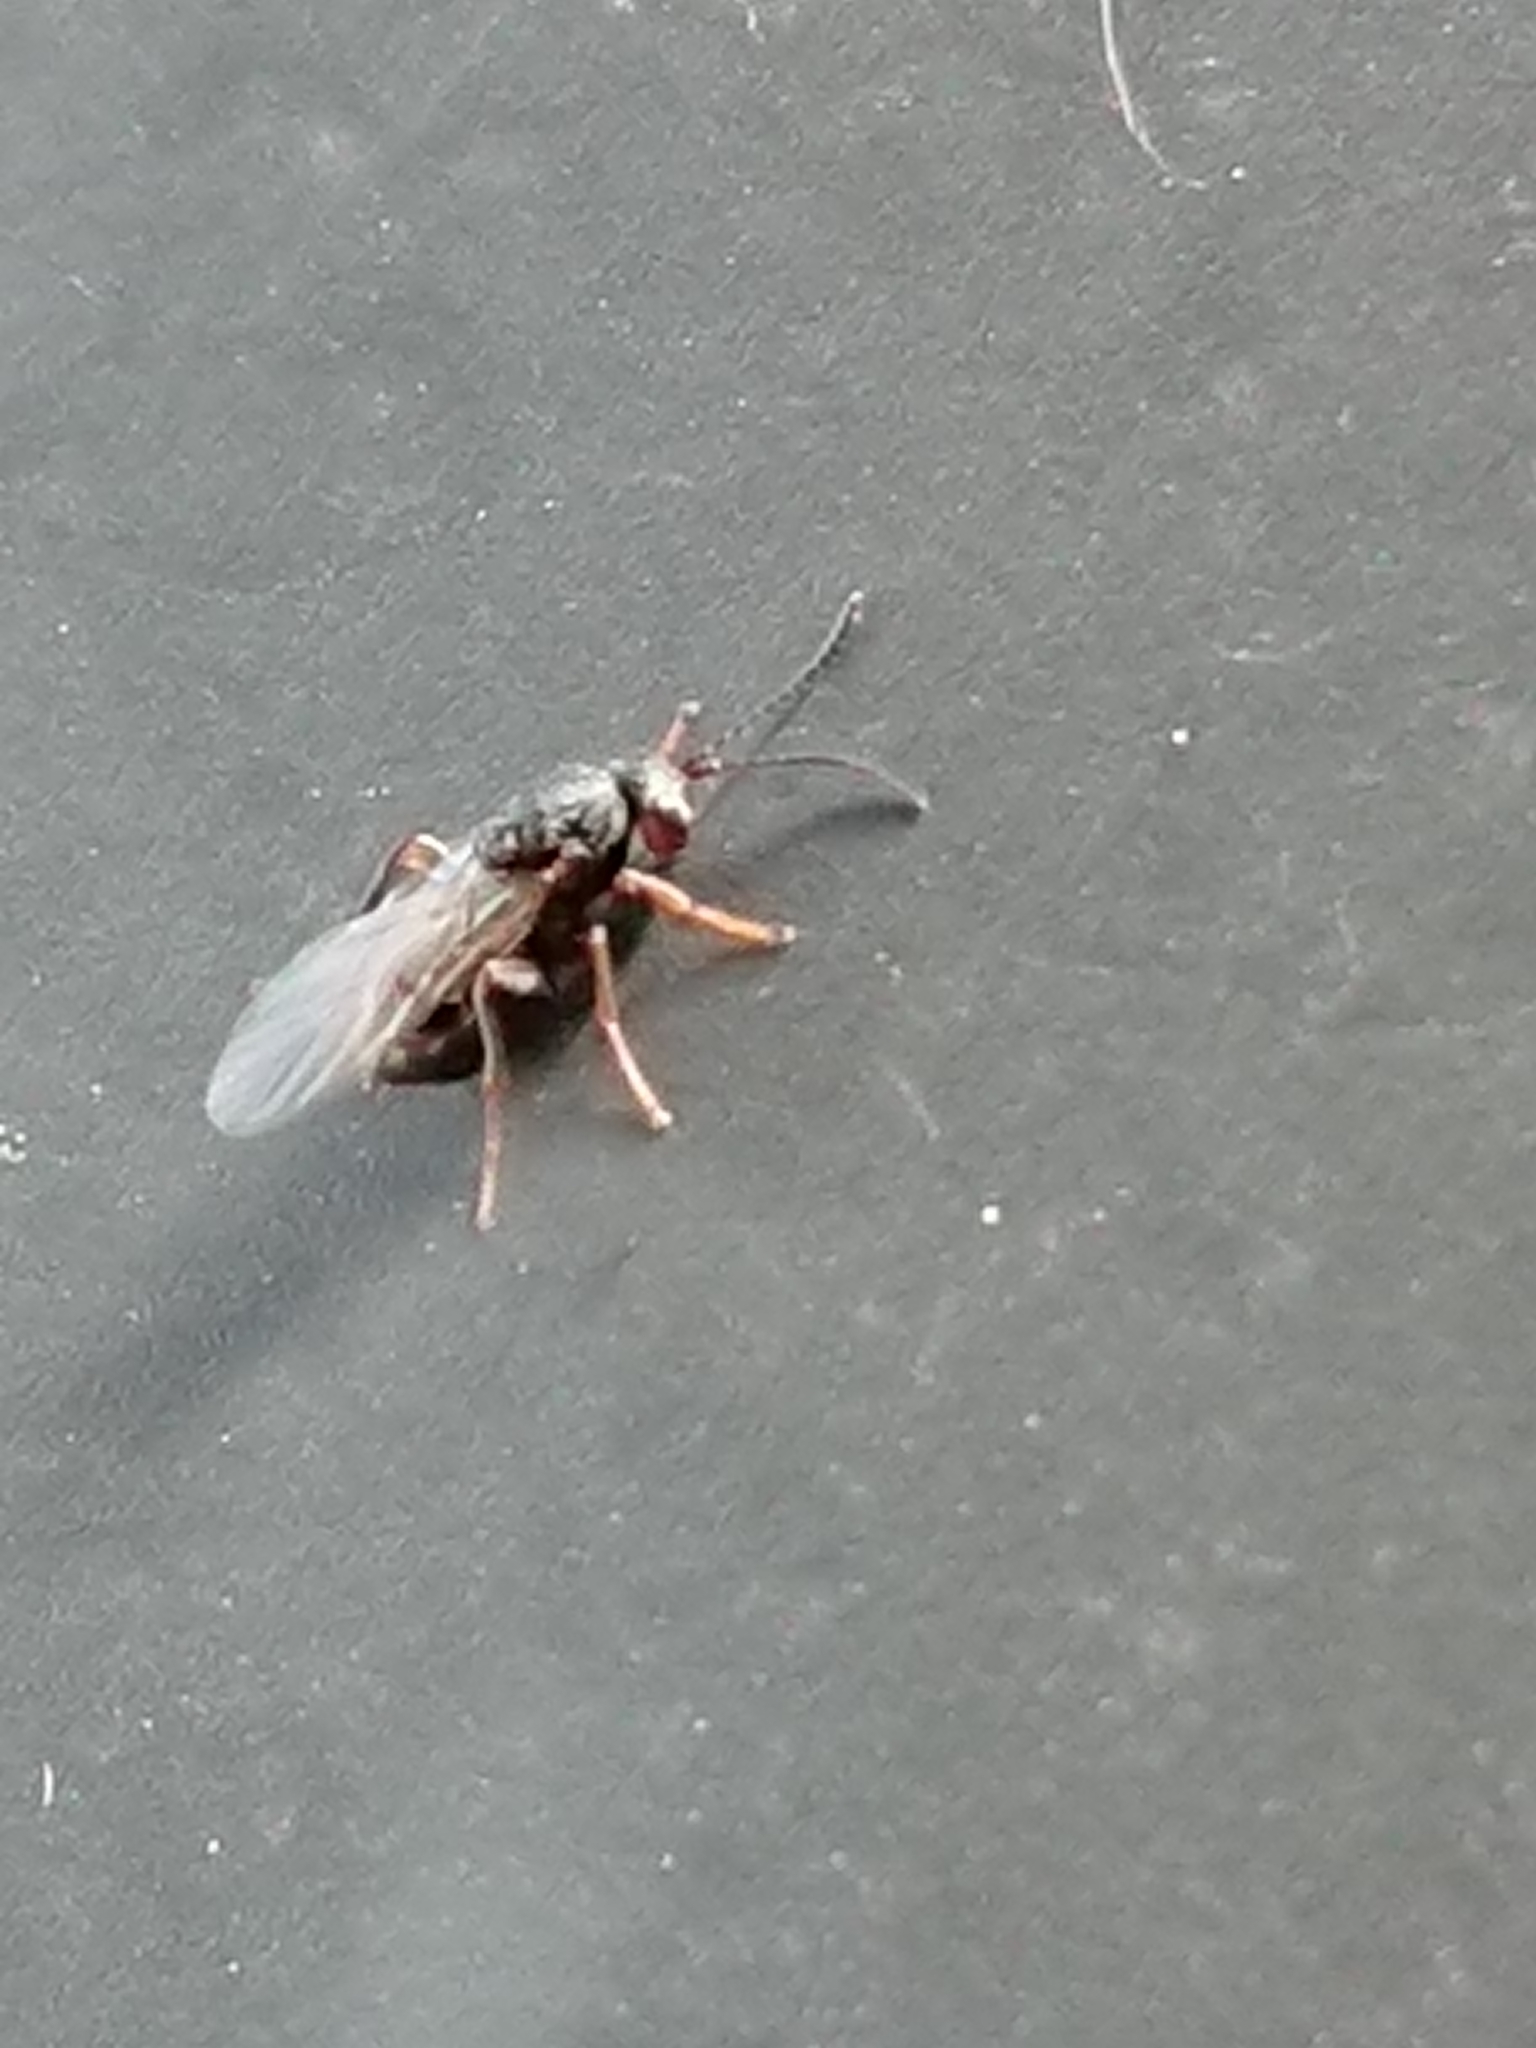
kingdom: Animalia
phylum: Arthropoda
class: Insecta
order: Hymenoptera
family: Cynipidae
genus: Callirhytis
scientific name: Callirhytis erythrocephala
